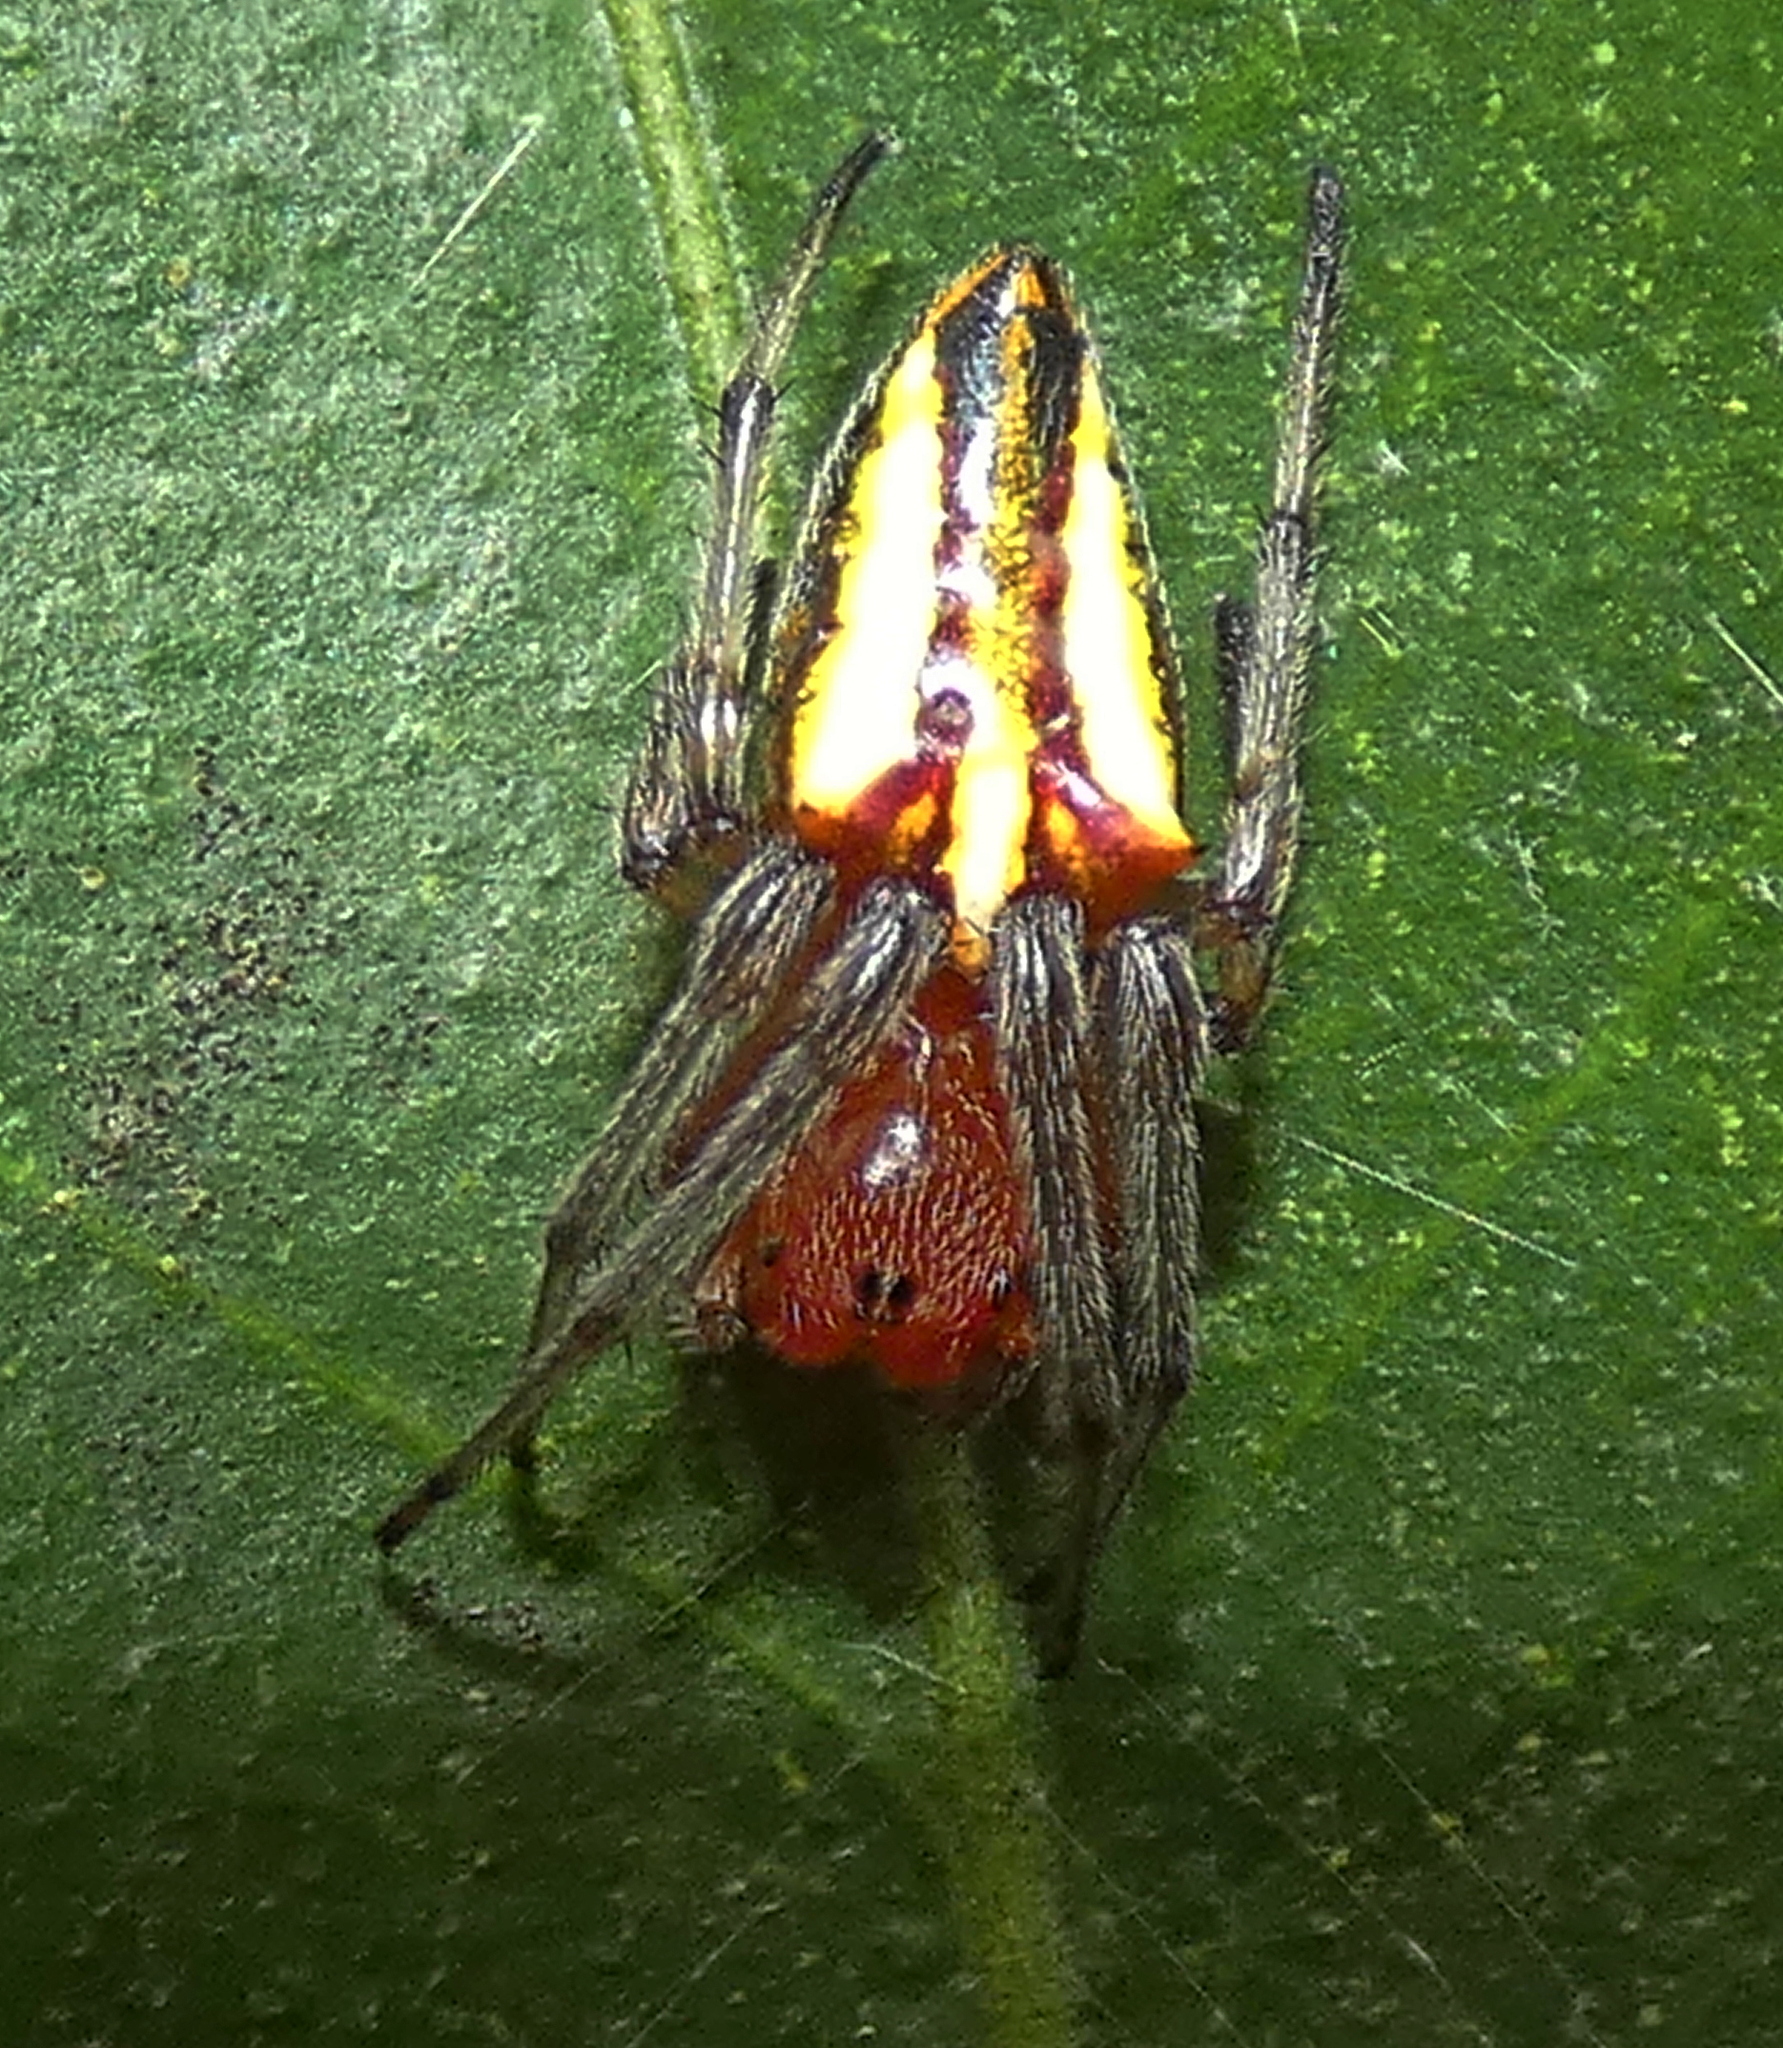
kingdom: Animalia
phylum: Arthropoda
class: Arachnida
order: Araneae
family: Araneidae
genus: Alpaida
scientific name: Alpaida bicornuta
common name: Orb weavers
